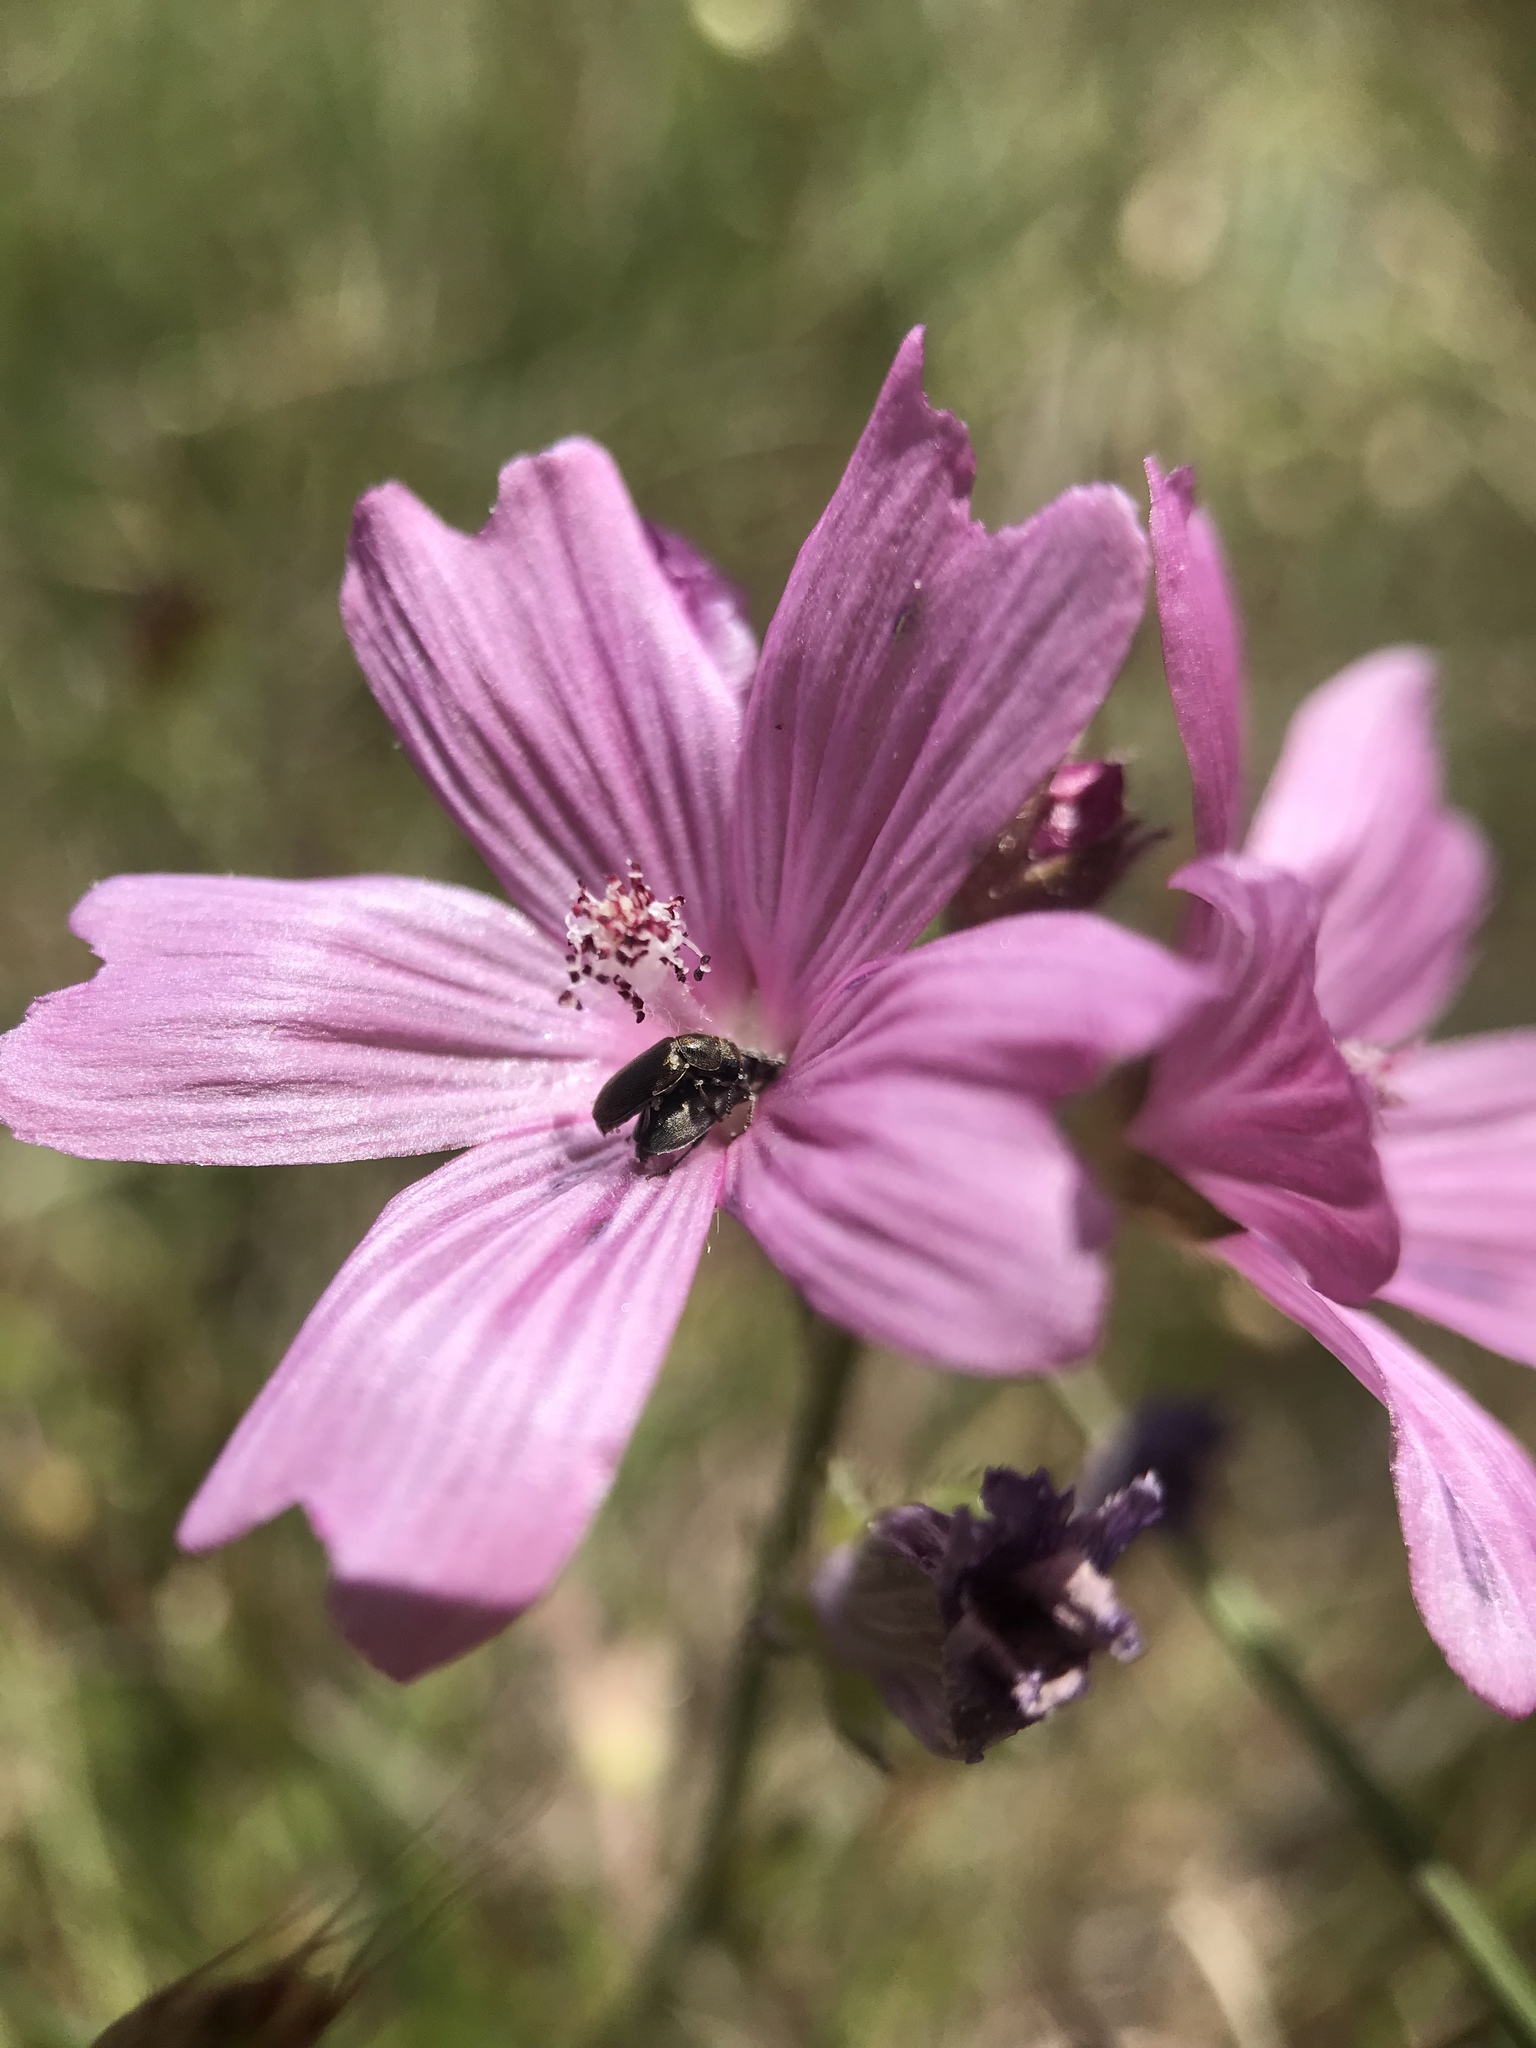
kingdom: Plantae
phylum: Tracheophyta
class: Magnoliopsida
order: Malvales
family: Malvaceae
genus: Sidalcea
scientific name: Sidalcea malviflora
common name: Greek mallow
